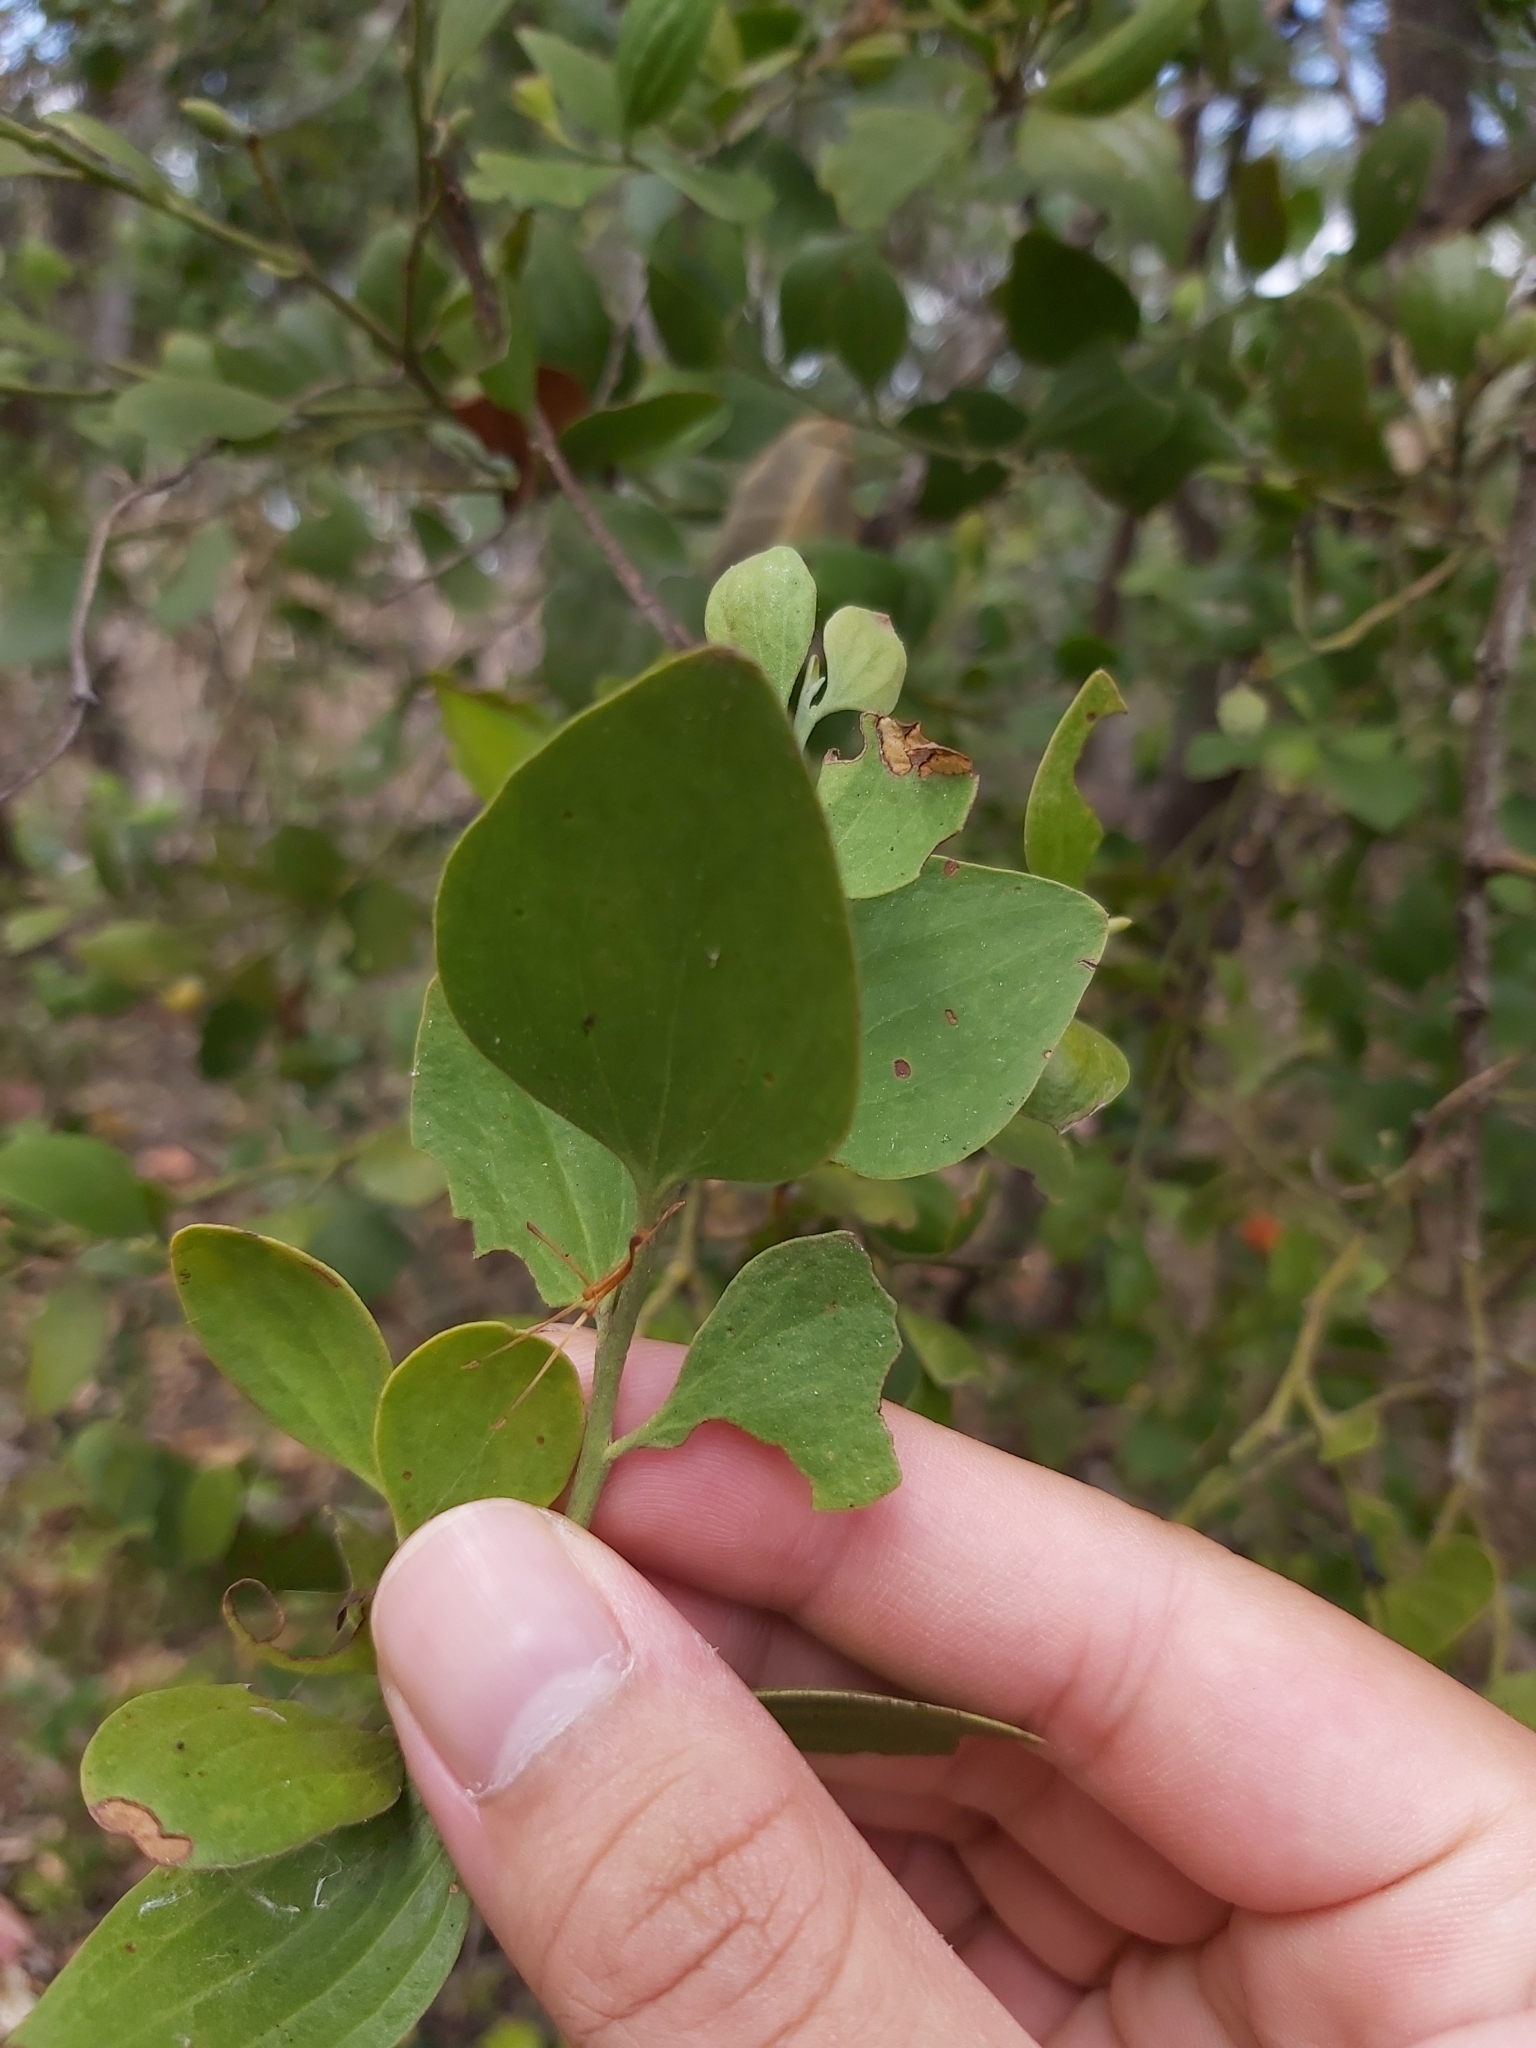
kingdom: Plantae
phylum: Tracheophyta
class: Magnoliopsida
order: Santalales
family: Santalaceae
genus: Exocarpos
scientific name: Exocarpos latifolius
